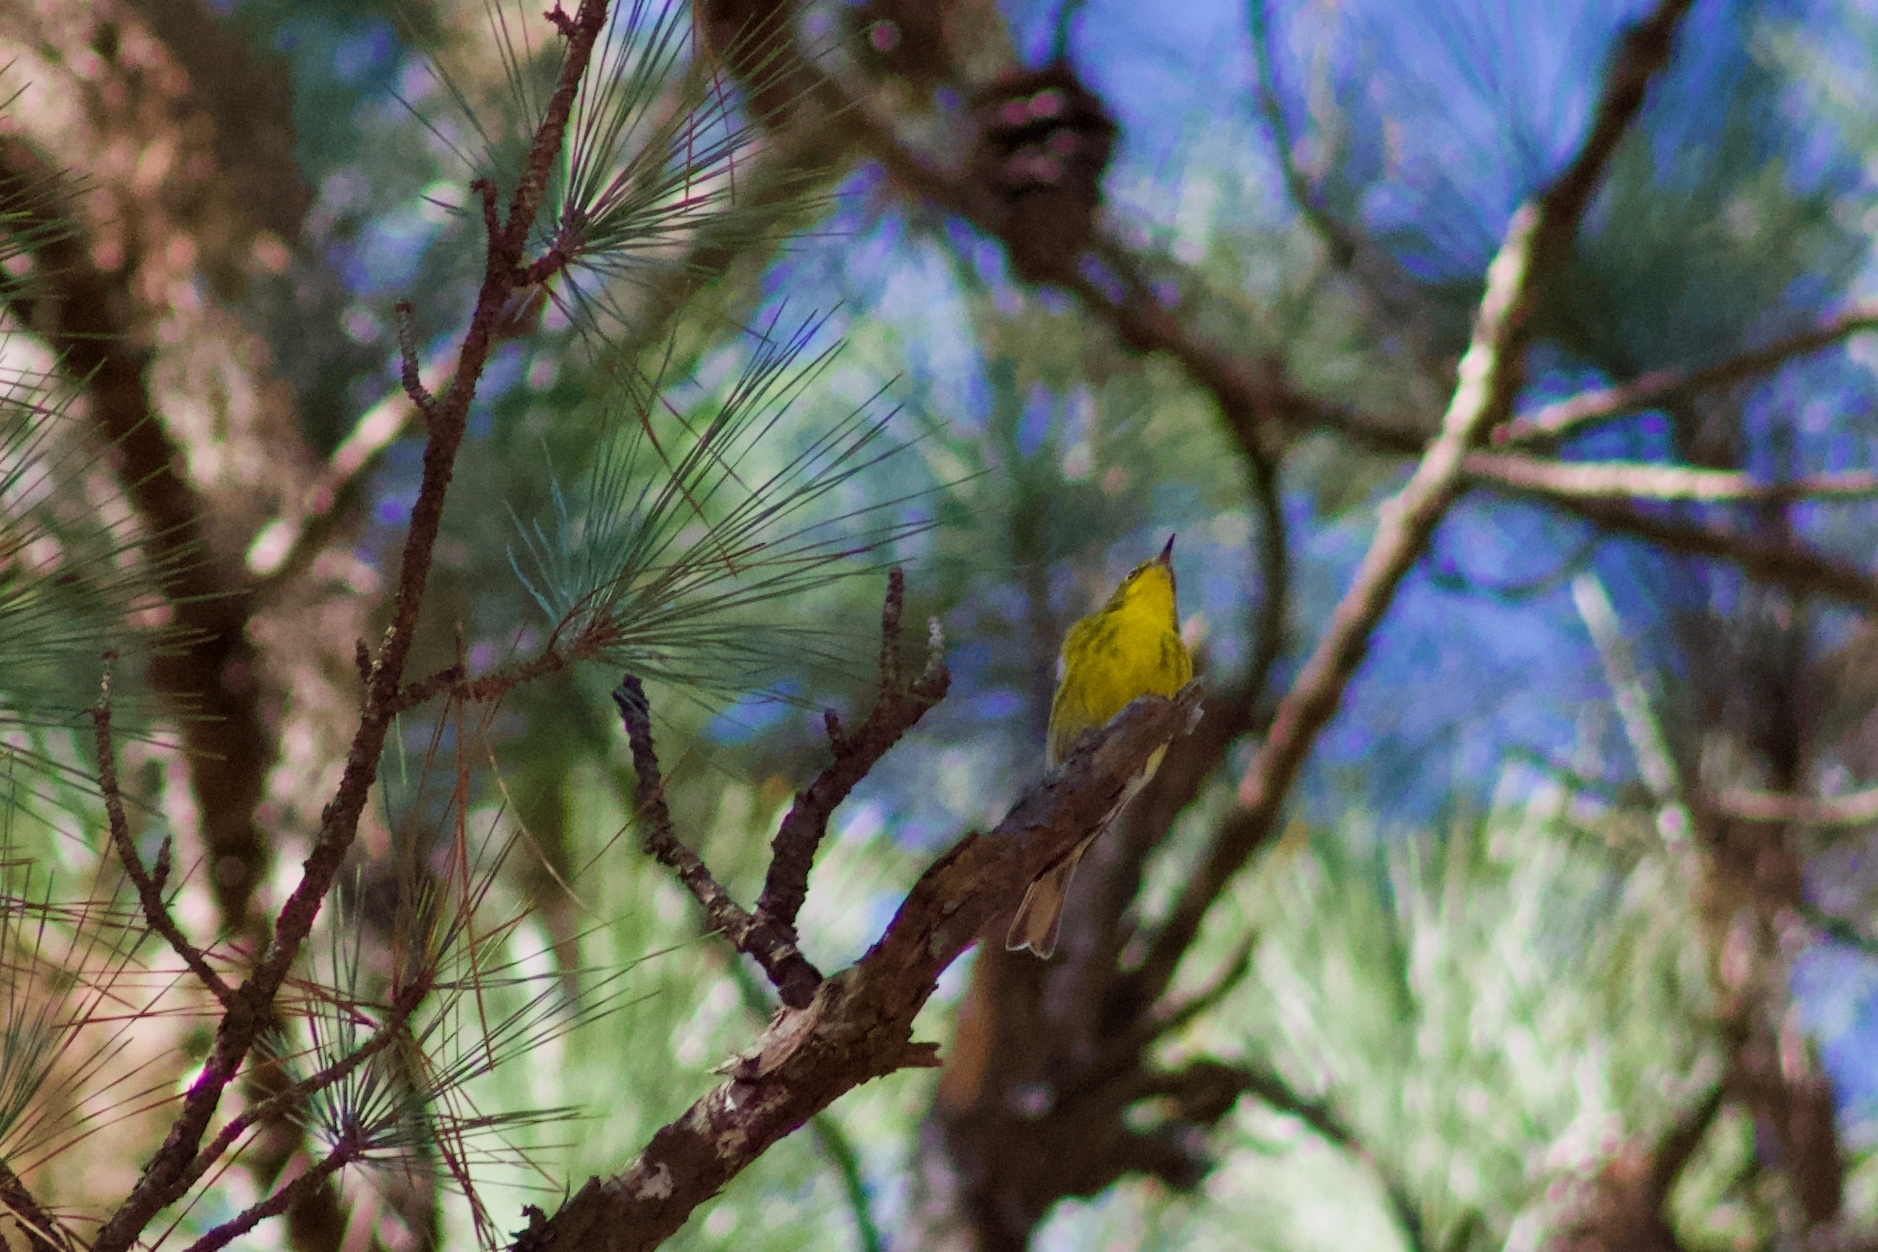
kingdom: Animalia
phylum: Chordata
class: Aves
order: Passeriformes
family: Parulidae
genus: Setophaga
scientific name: Setophaga pinus
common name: Pine warbler
